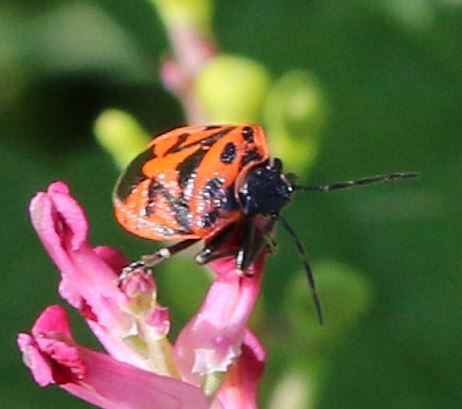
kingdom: Animalia
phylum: Arthropoda
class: Insecta
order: Hemiptera
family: Pentatomidae
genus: Eurydema
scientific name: Eurydema ornata
